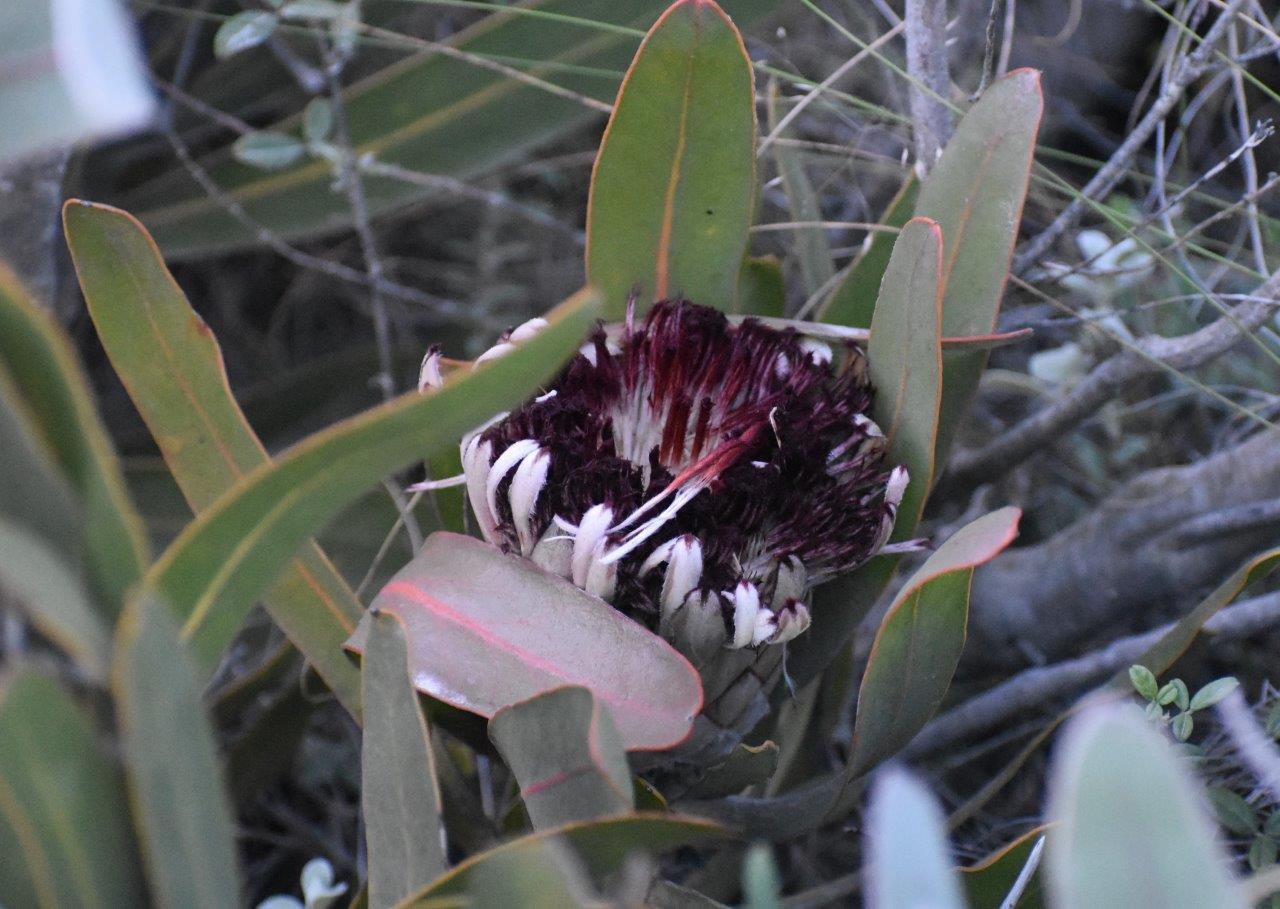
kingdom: Plantae
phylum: Tracheophyta
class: Magnoliopsida
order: Proteales
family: Proteaceae
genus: Protea
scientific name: Protea lorifolia
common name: Strap-leaved protea
